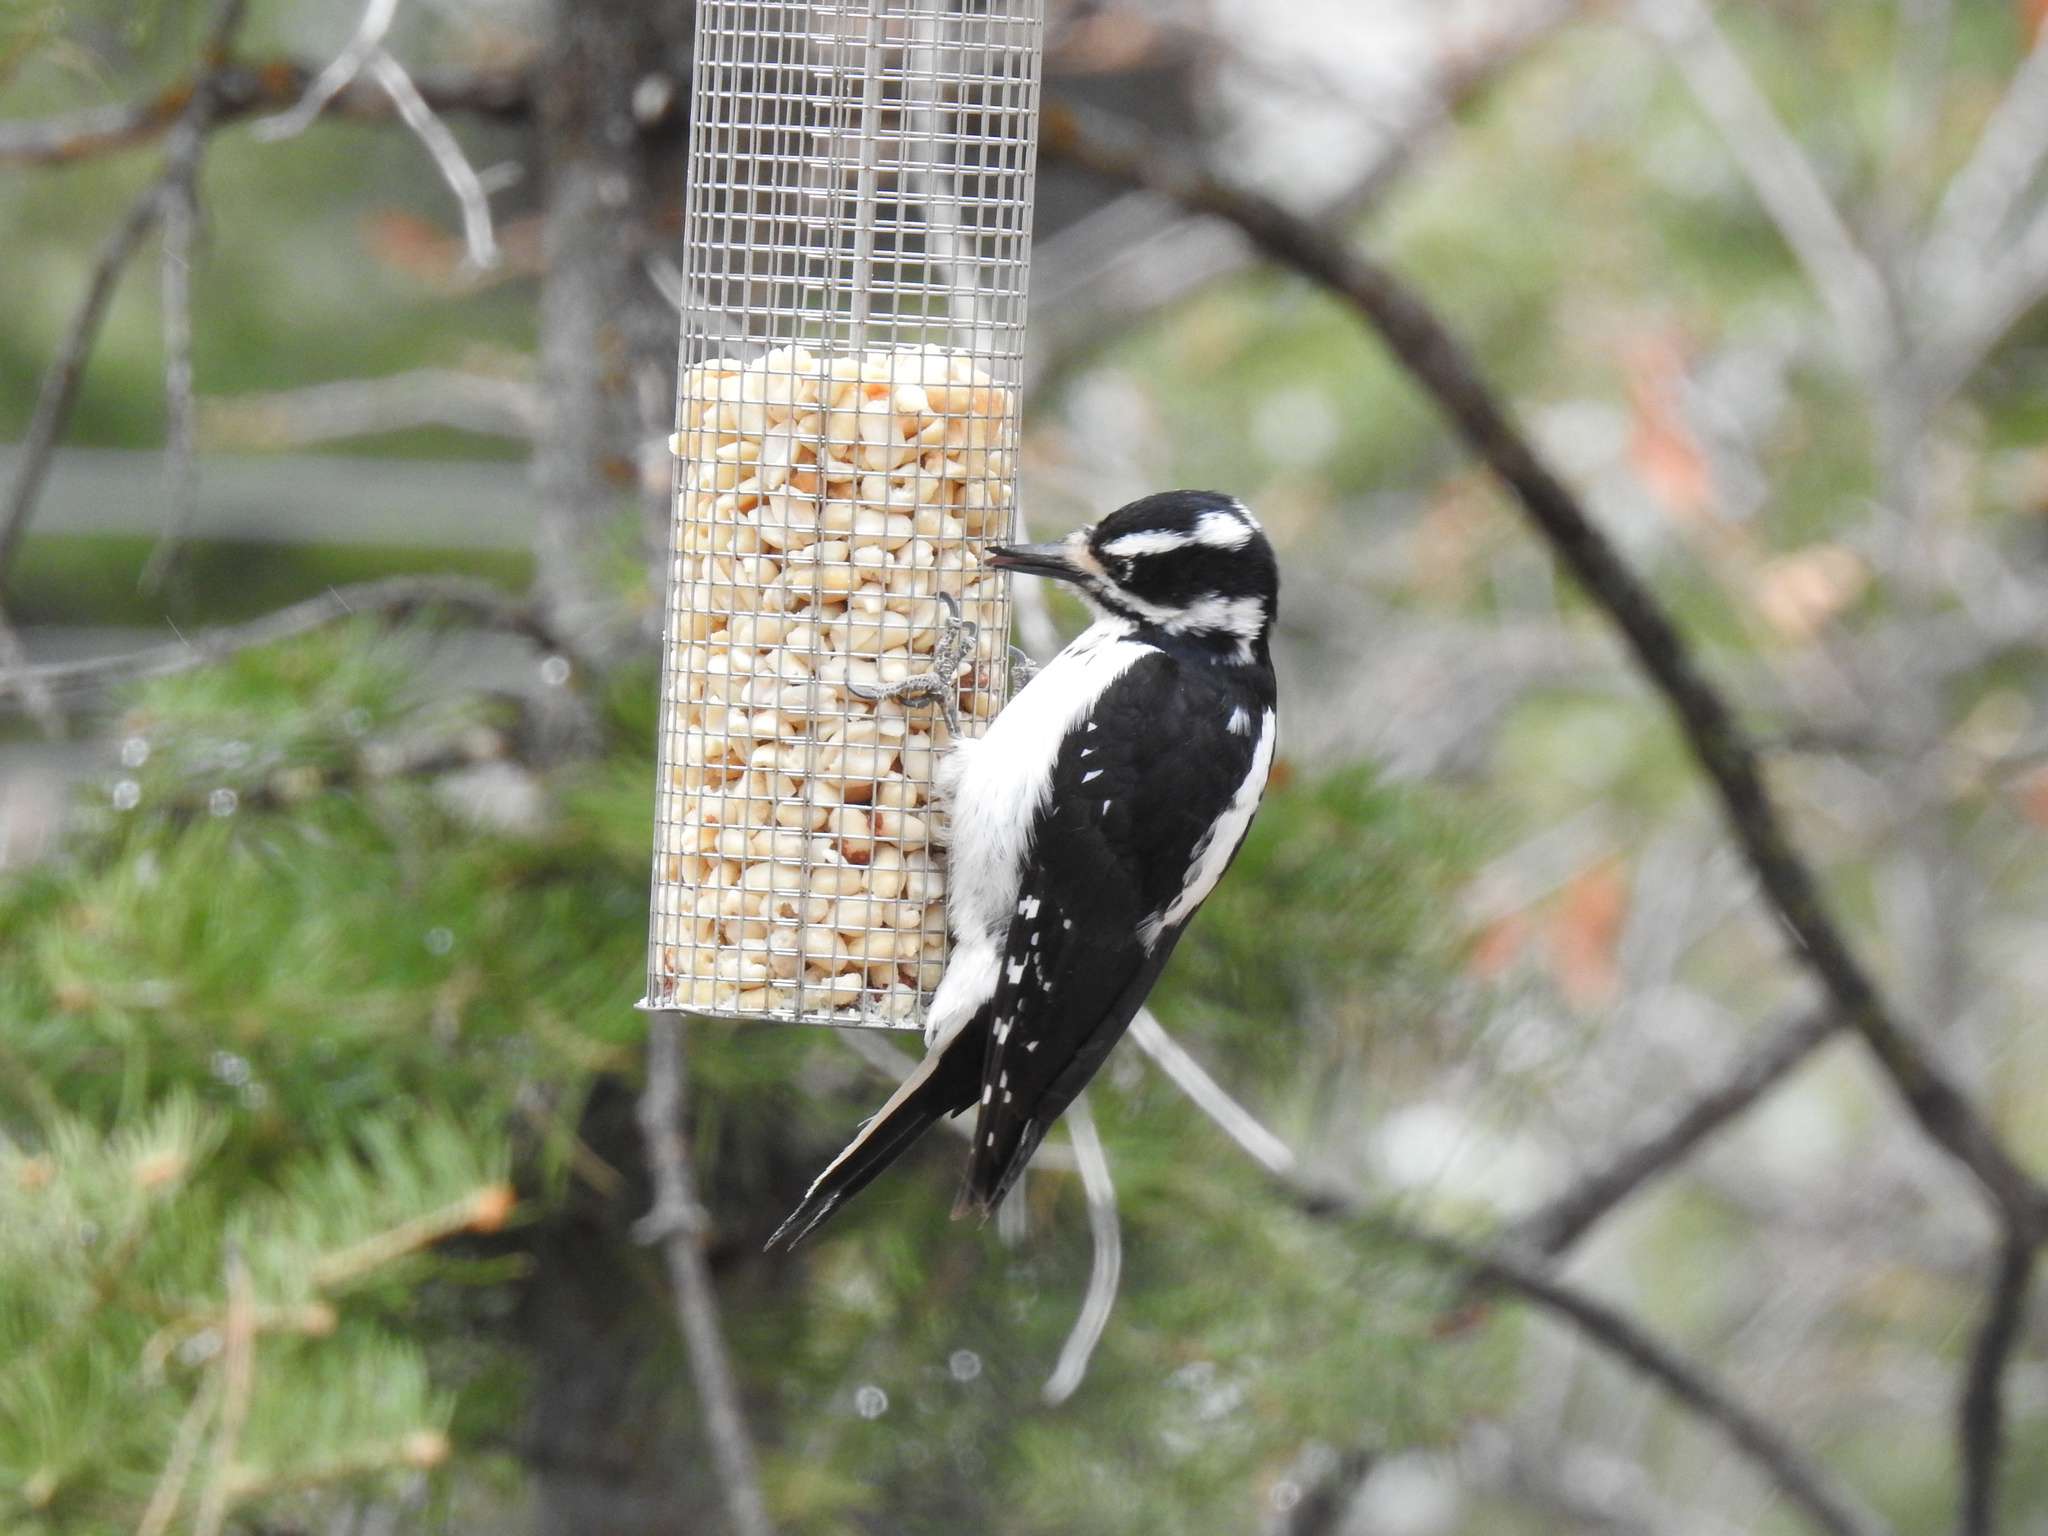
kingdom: Animalia
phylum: Chordata
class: Aves
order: Piciformes
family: Picidae
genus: Leuconotopicus
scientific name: Leuconotopicus villosus
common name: Hairy woodpecker
